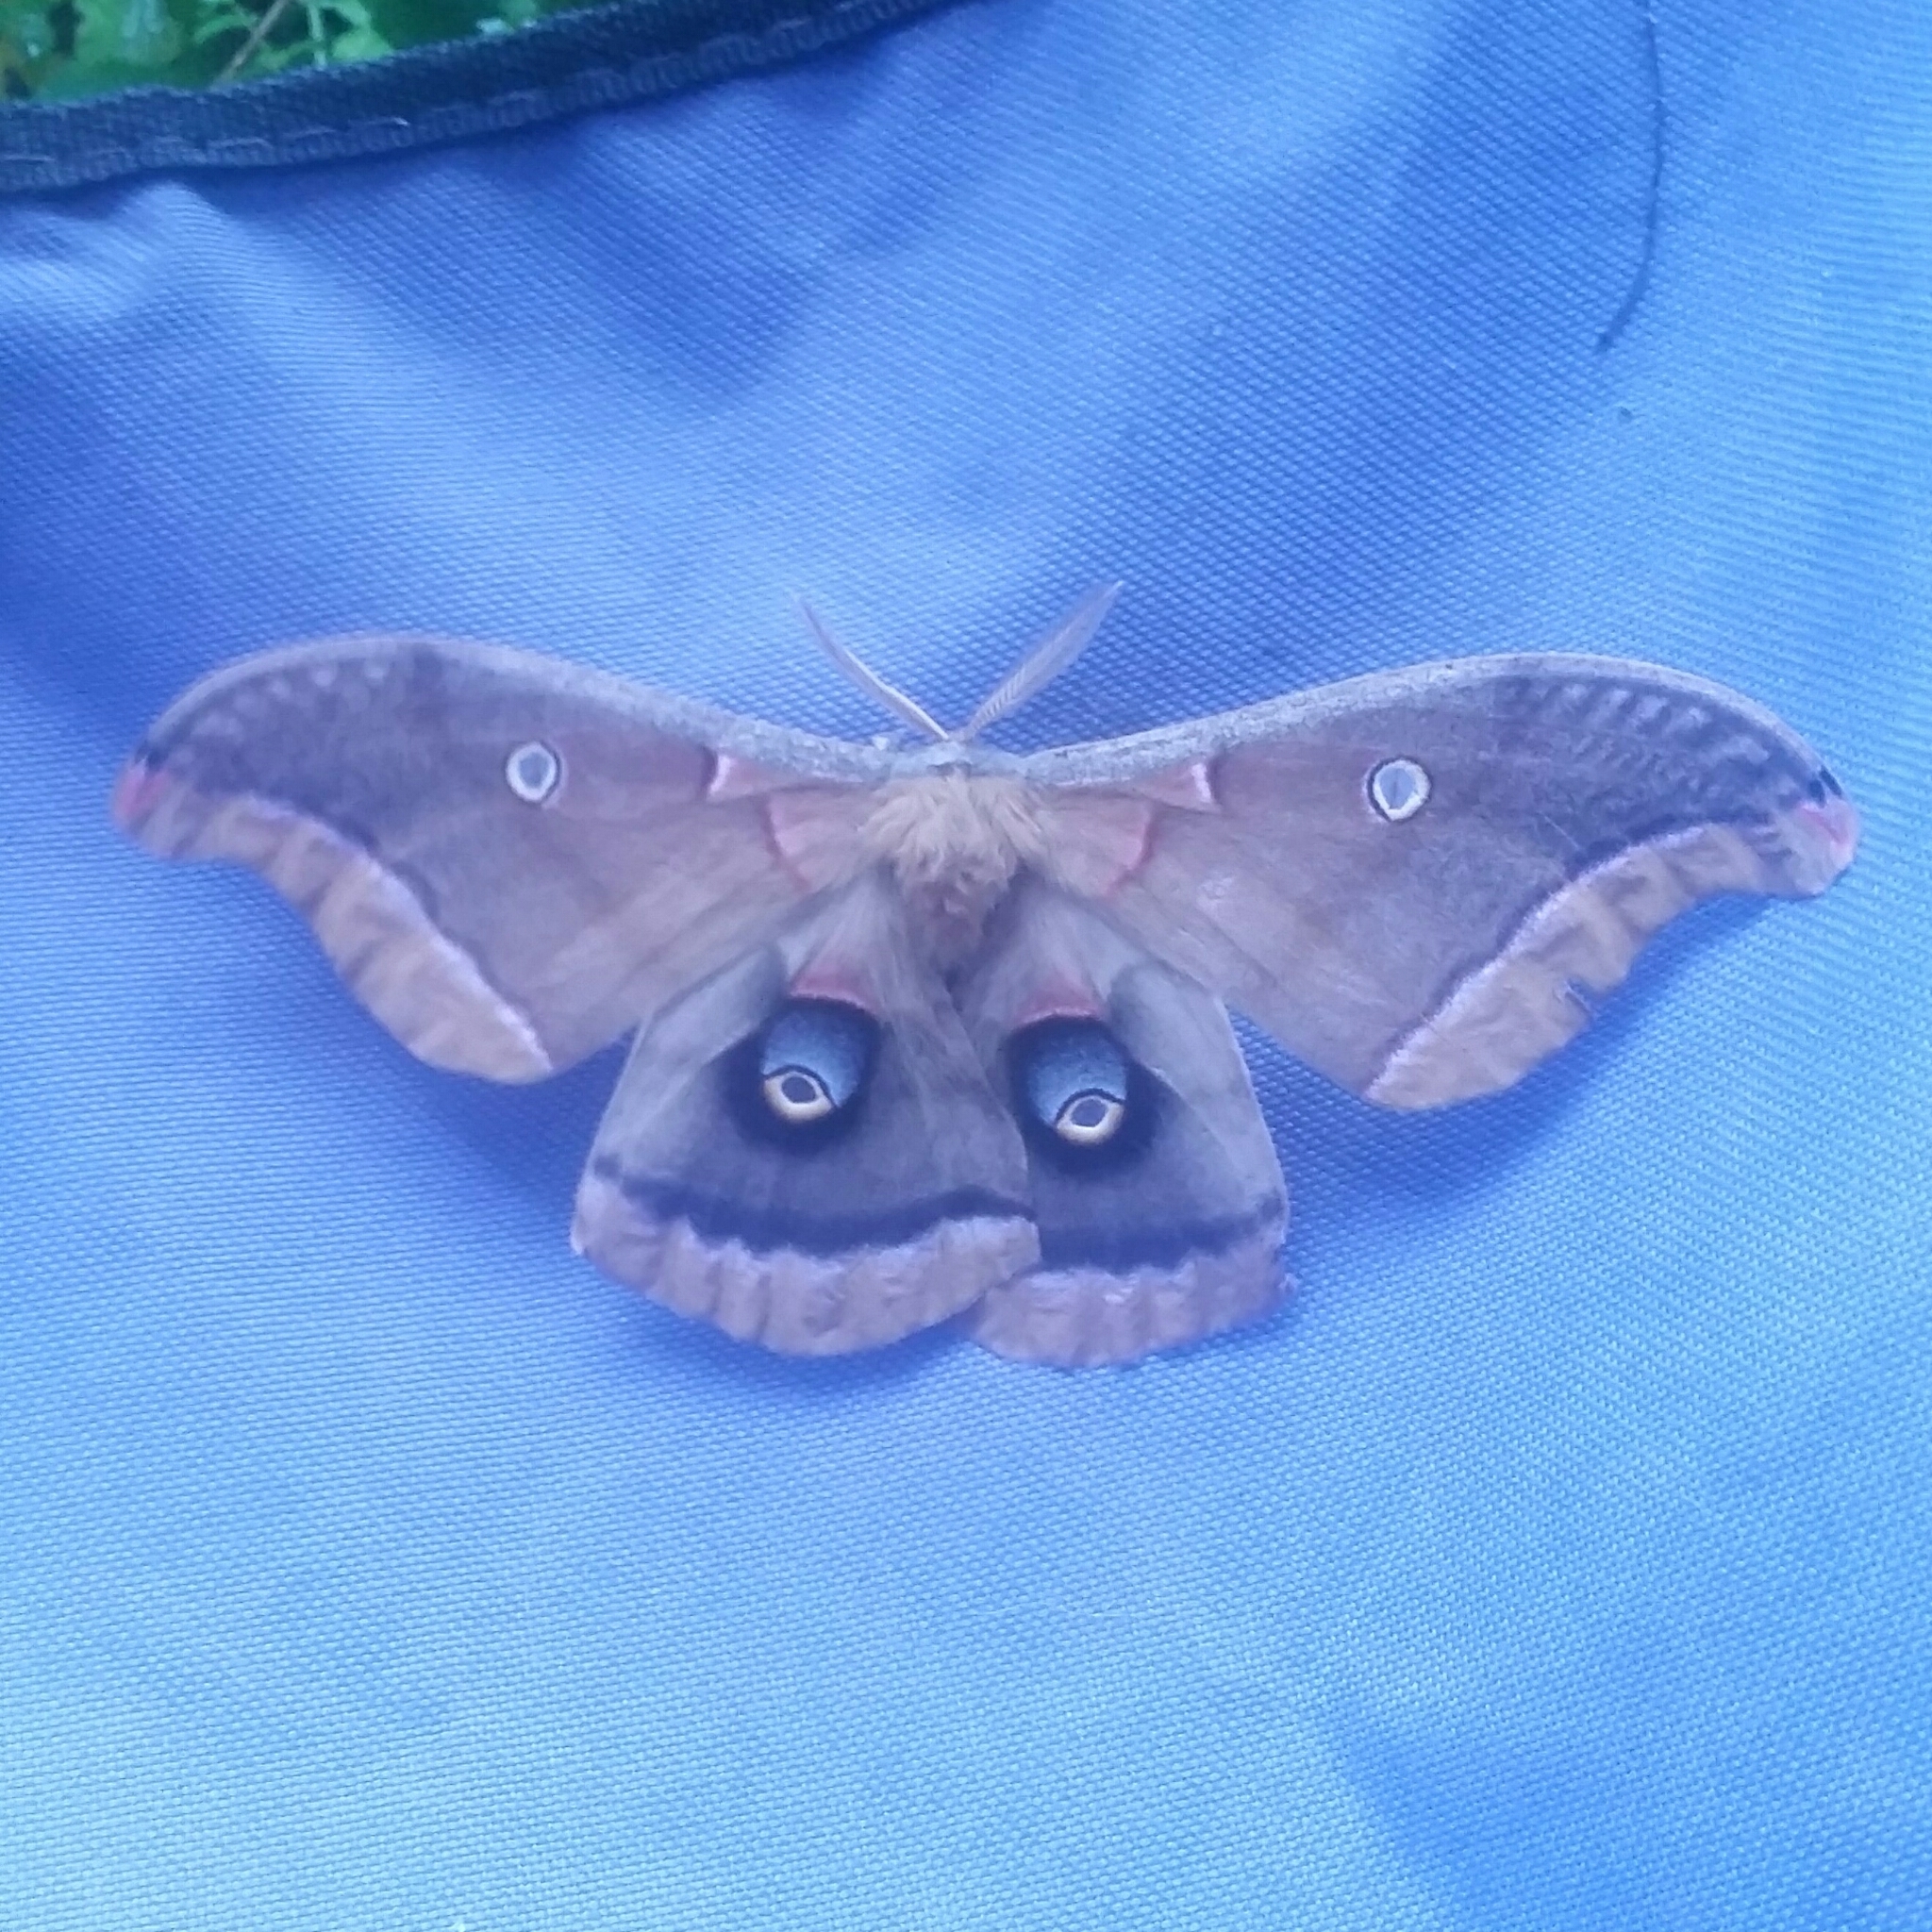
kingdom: Animalia
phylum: Arthropoda
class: Insecta
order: Lepidoptera
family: Saturniidae
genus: Antheraea
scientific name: Antheraea polyphemus
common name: Polyphemus moth
